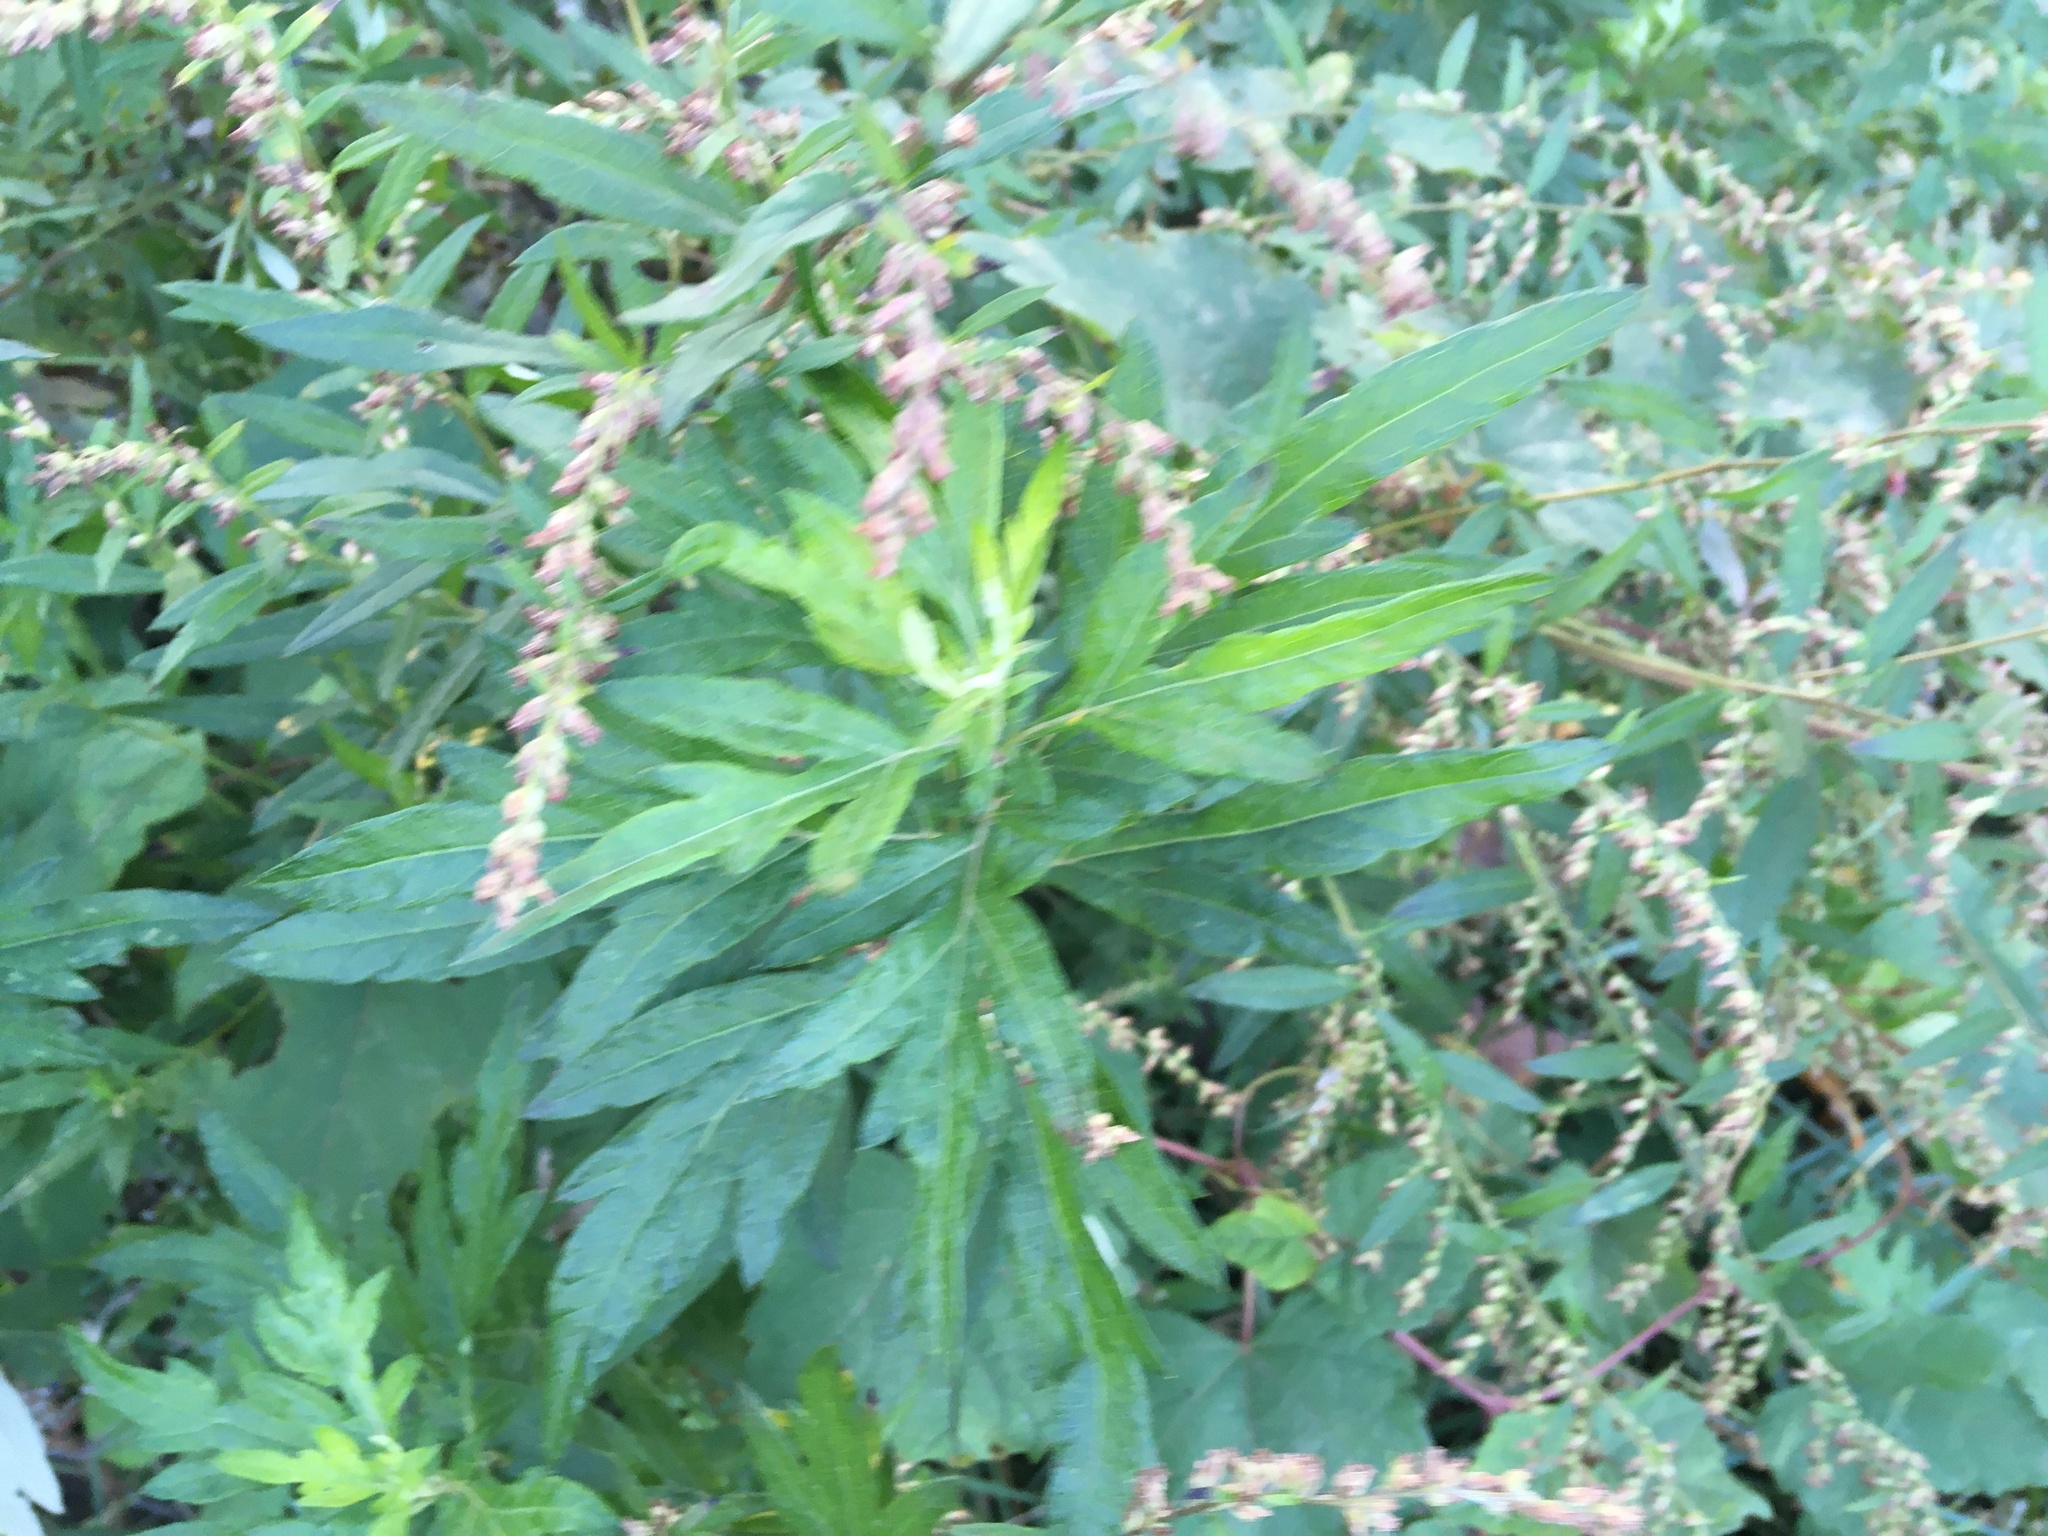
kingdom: Plantae
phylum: Tracheophyta
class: Magnoliopsida
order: Asterales
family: Asteraceae
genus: Artemisia
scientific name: Artemisia vulgaris
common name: Mugwort
